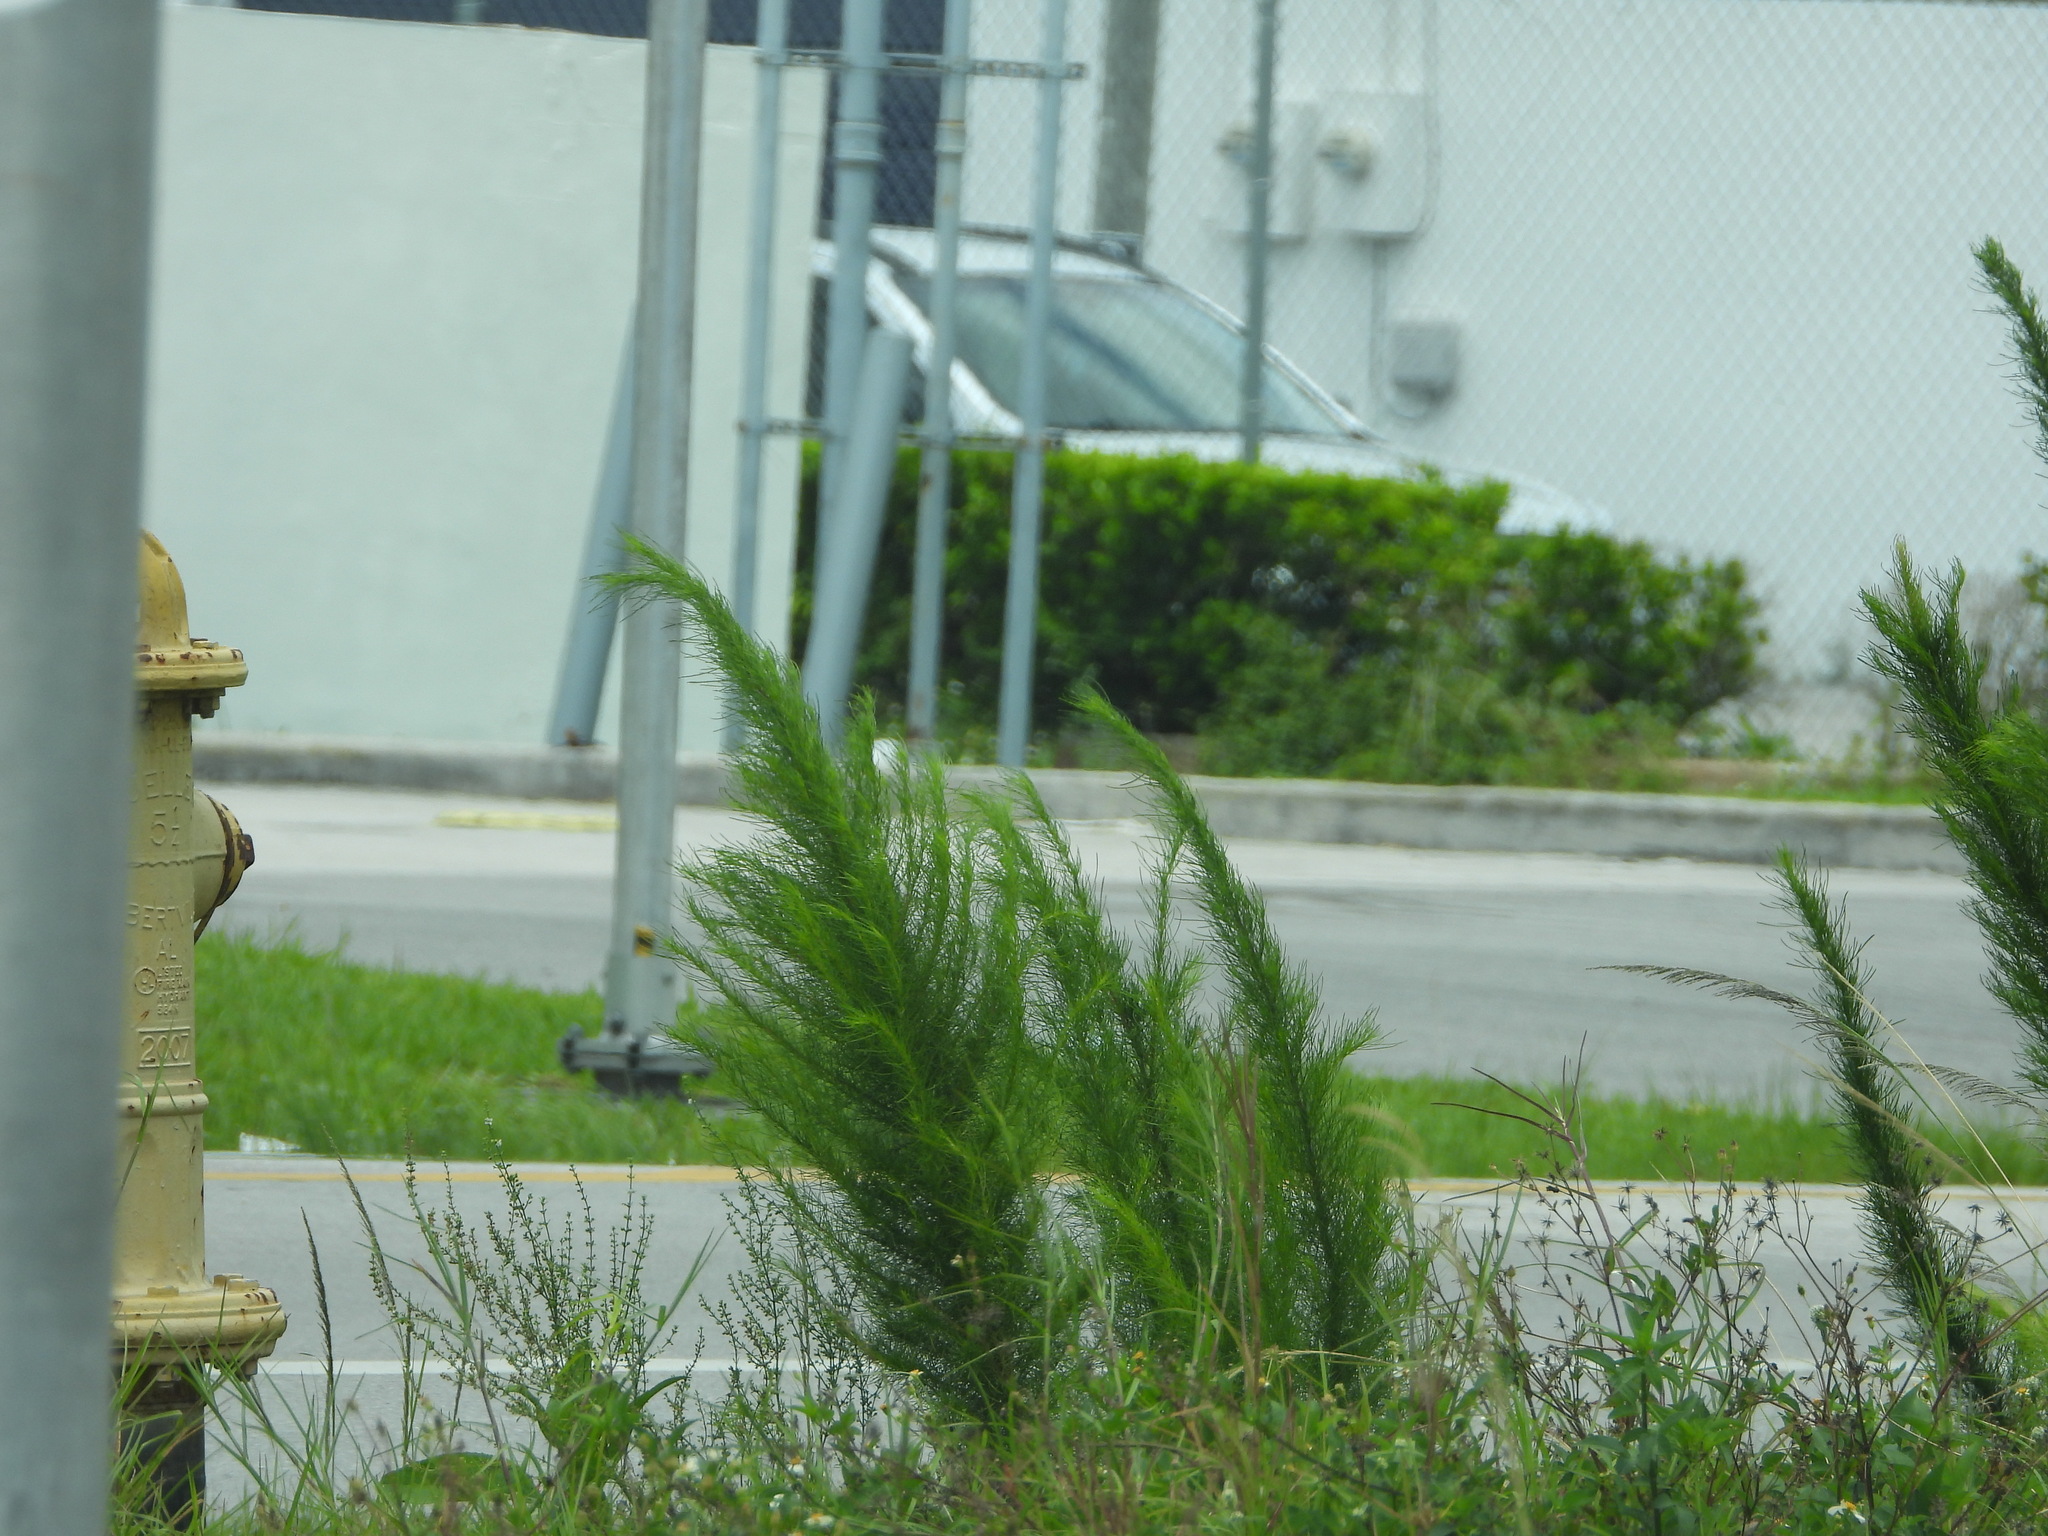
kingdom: Plantae
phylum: Tracheophyta
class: Magnoliopsida
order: Asterales
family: Asteraceae
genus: Eupatorium
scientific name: Eupatorium capillifolium
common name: Dog-fennel
